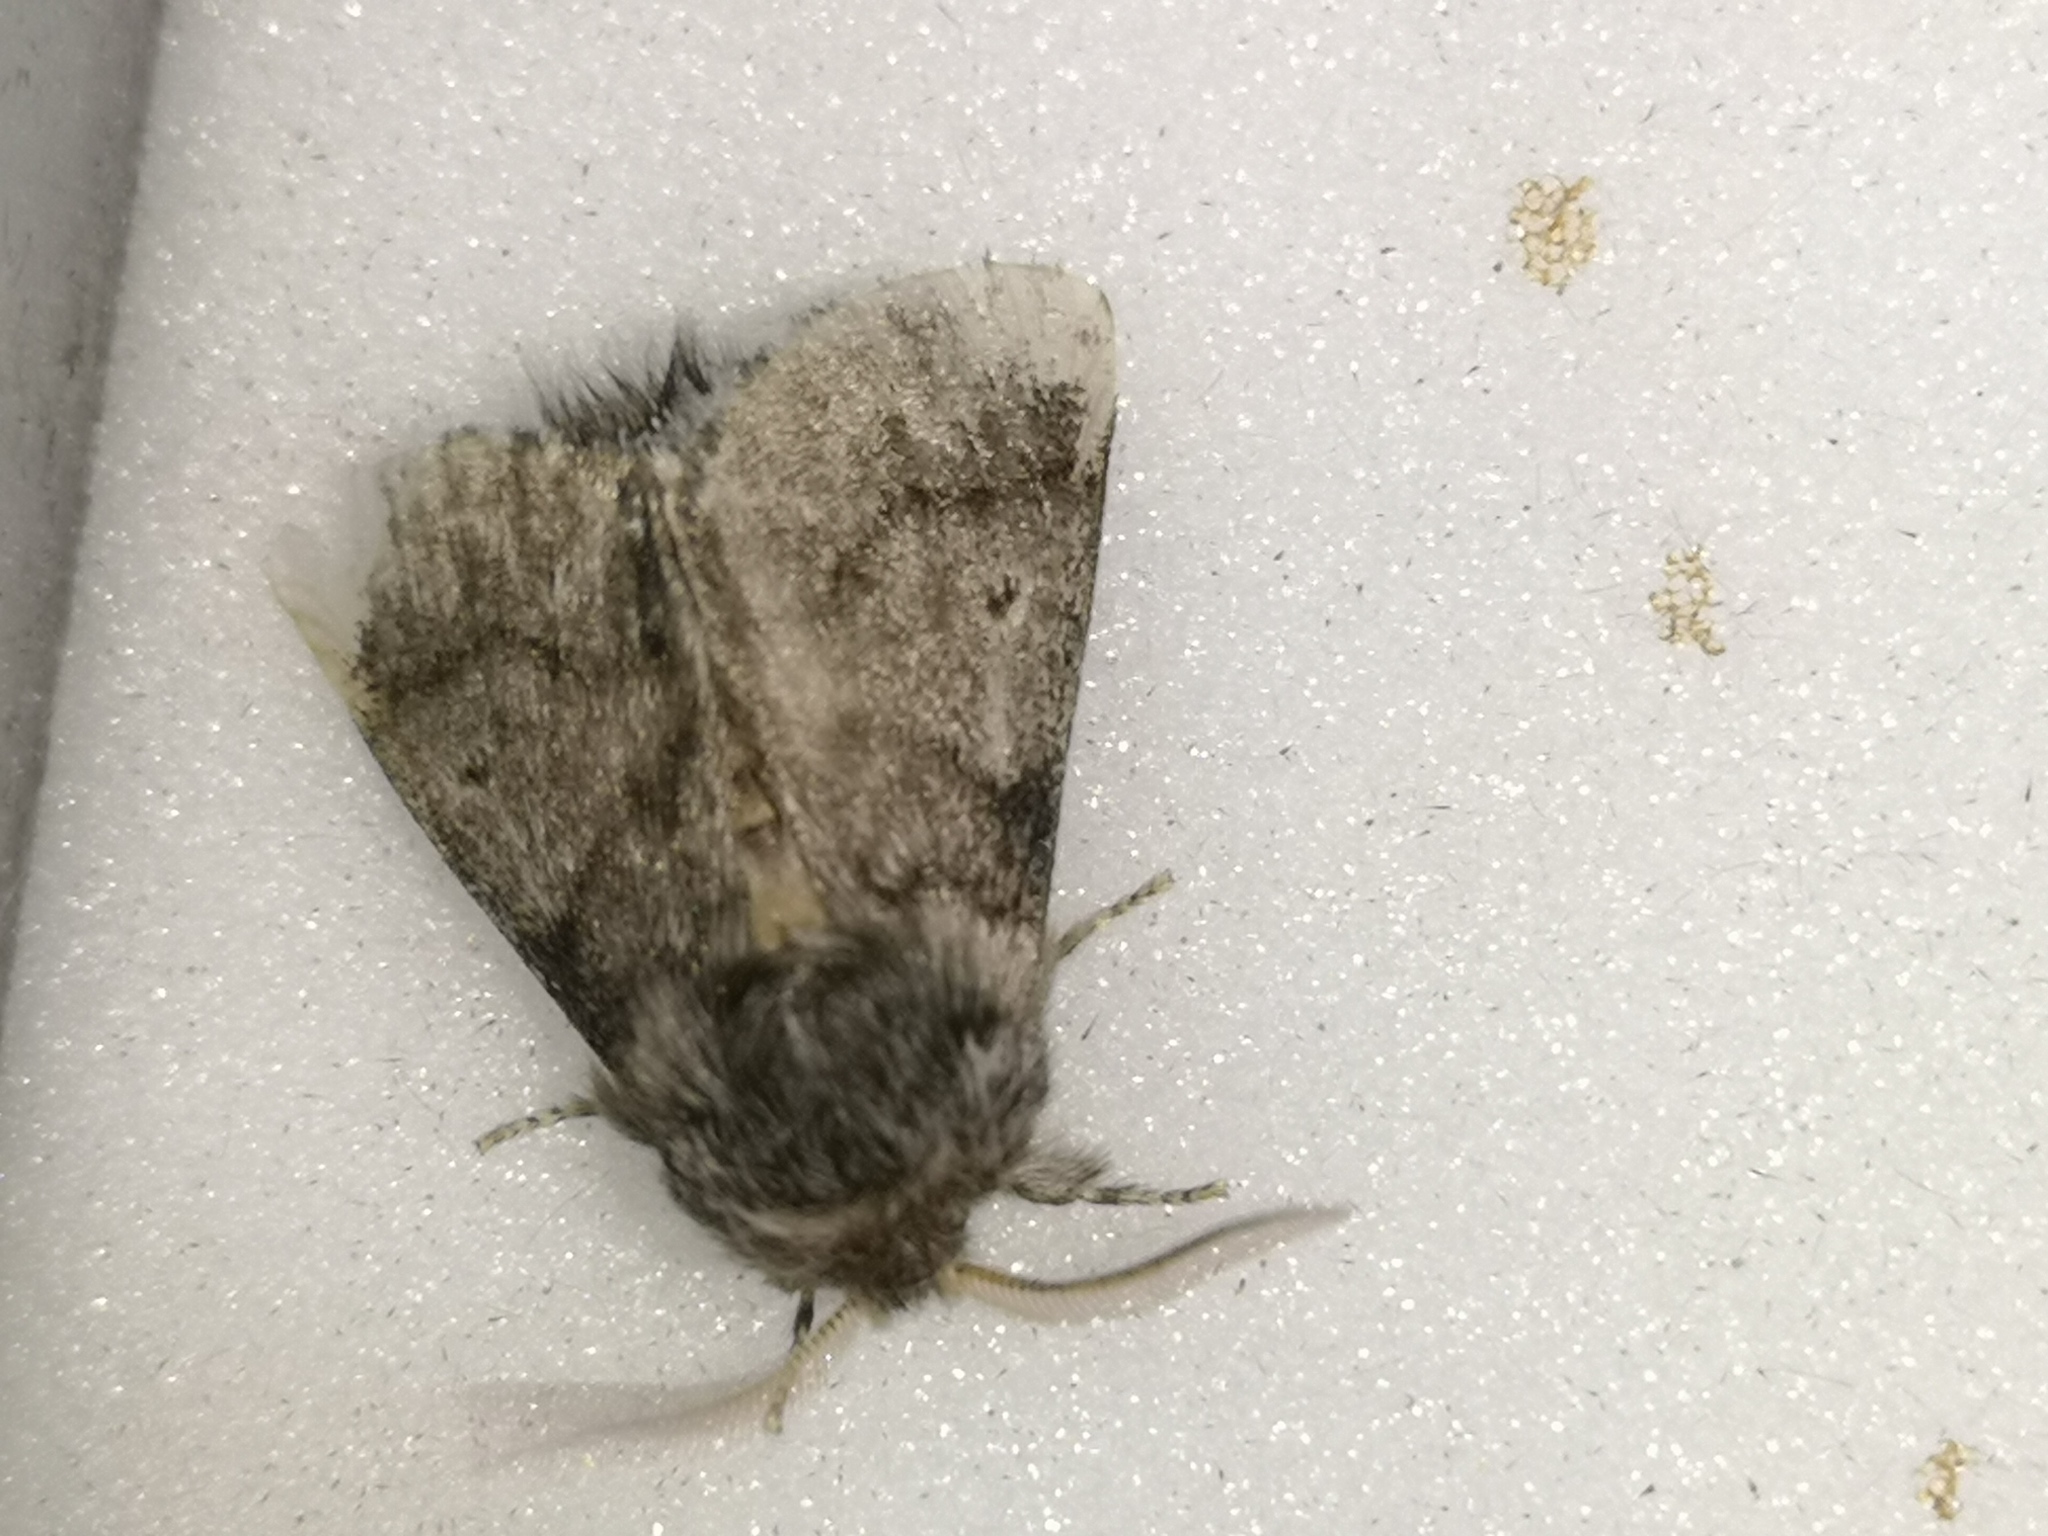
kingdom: Animalia
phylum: Arthropoda
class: Insecta
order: Lepidoptera
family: Notodontidae
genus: Thaumetopoea
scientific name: Thaumetopoea processionea
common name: Oak processionea
